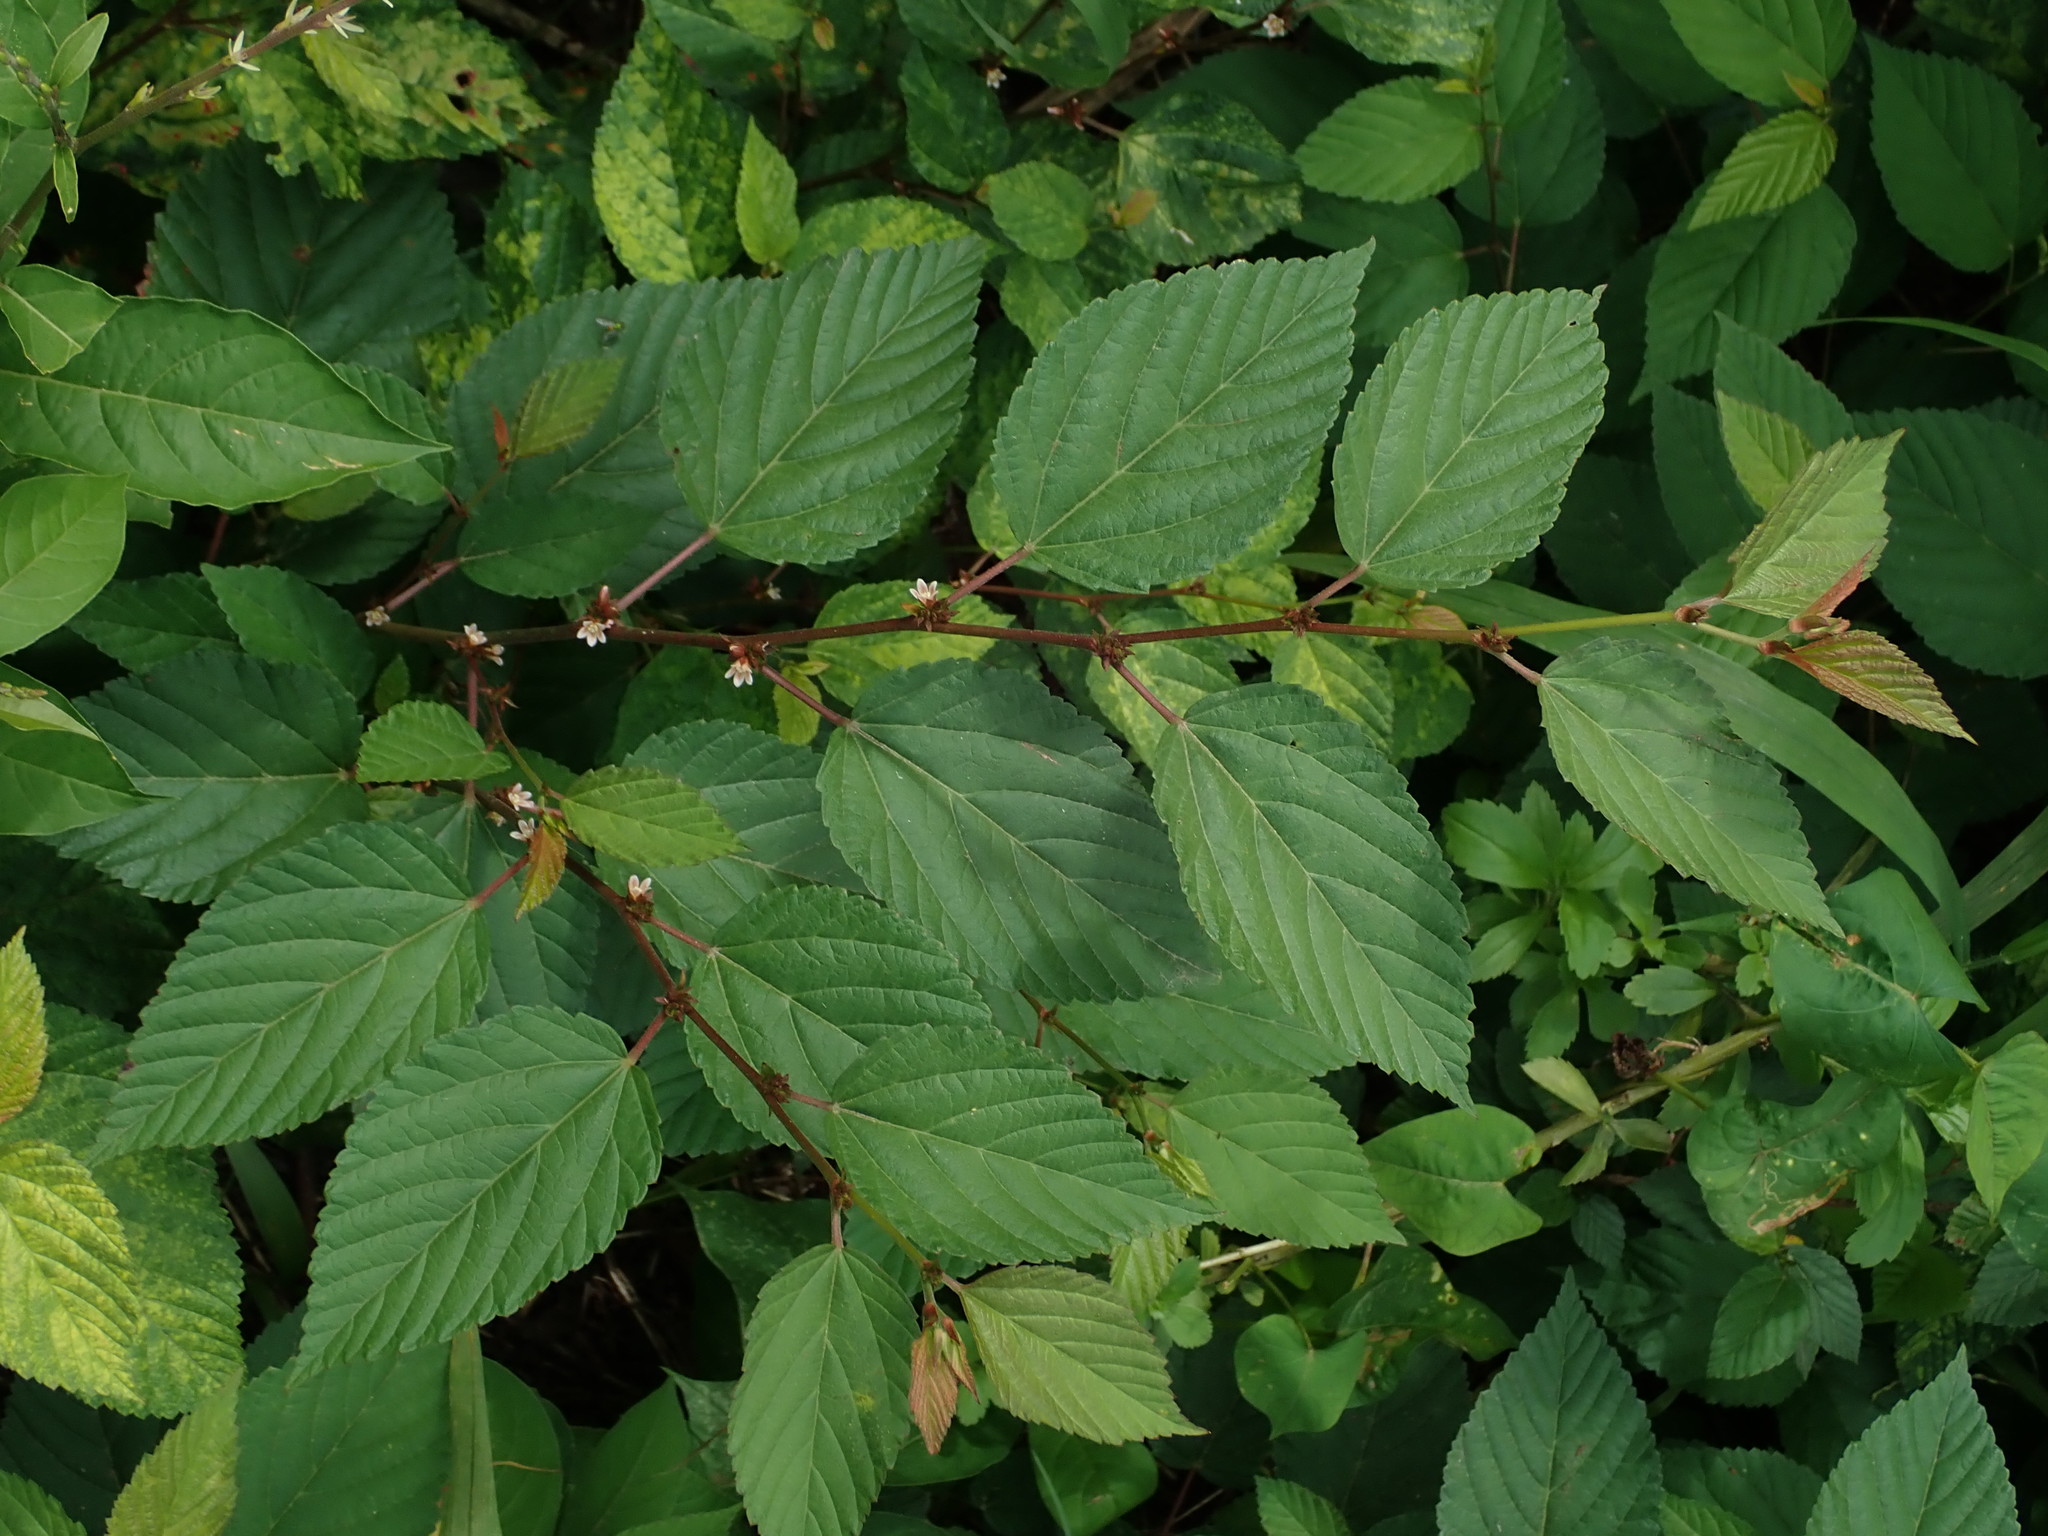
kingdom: Plantae
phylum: Tracheophyta
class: Magnoliopsida
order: Malvales
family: Malvaceae
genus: Melochia
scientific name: Melochia nodiflora
